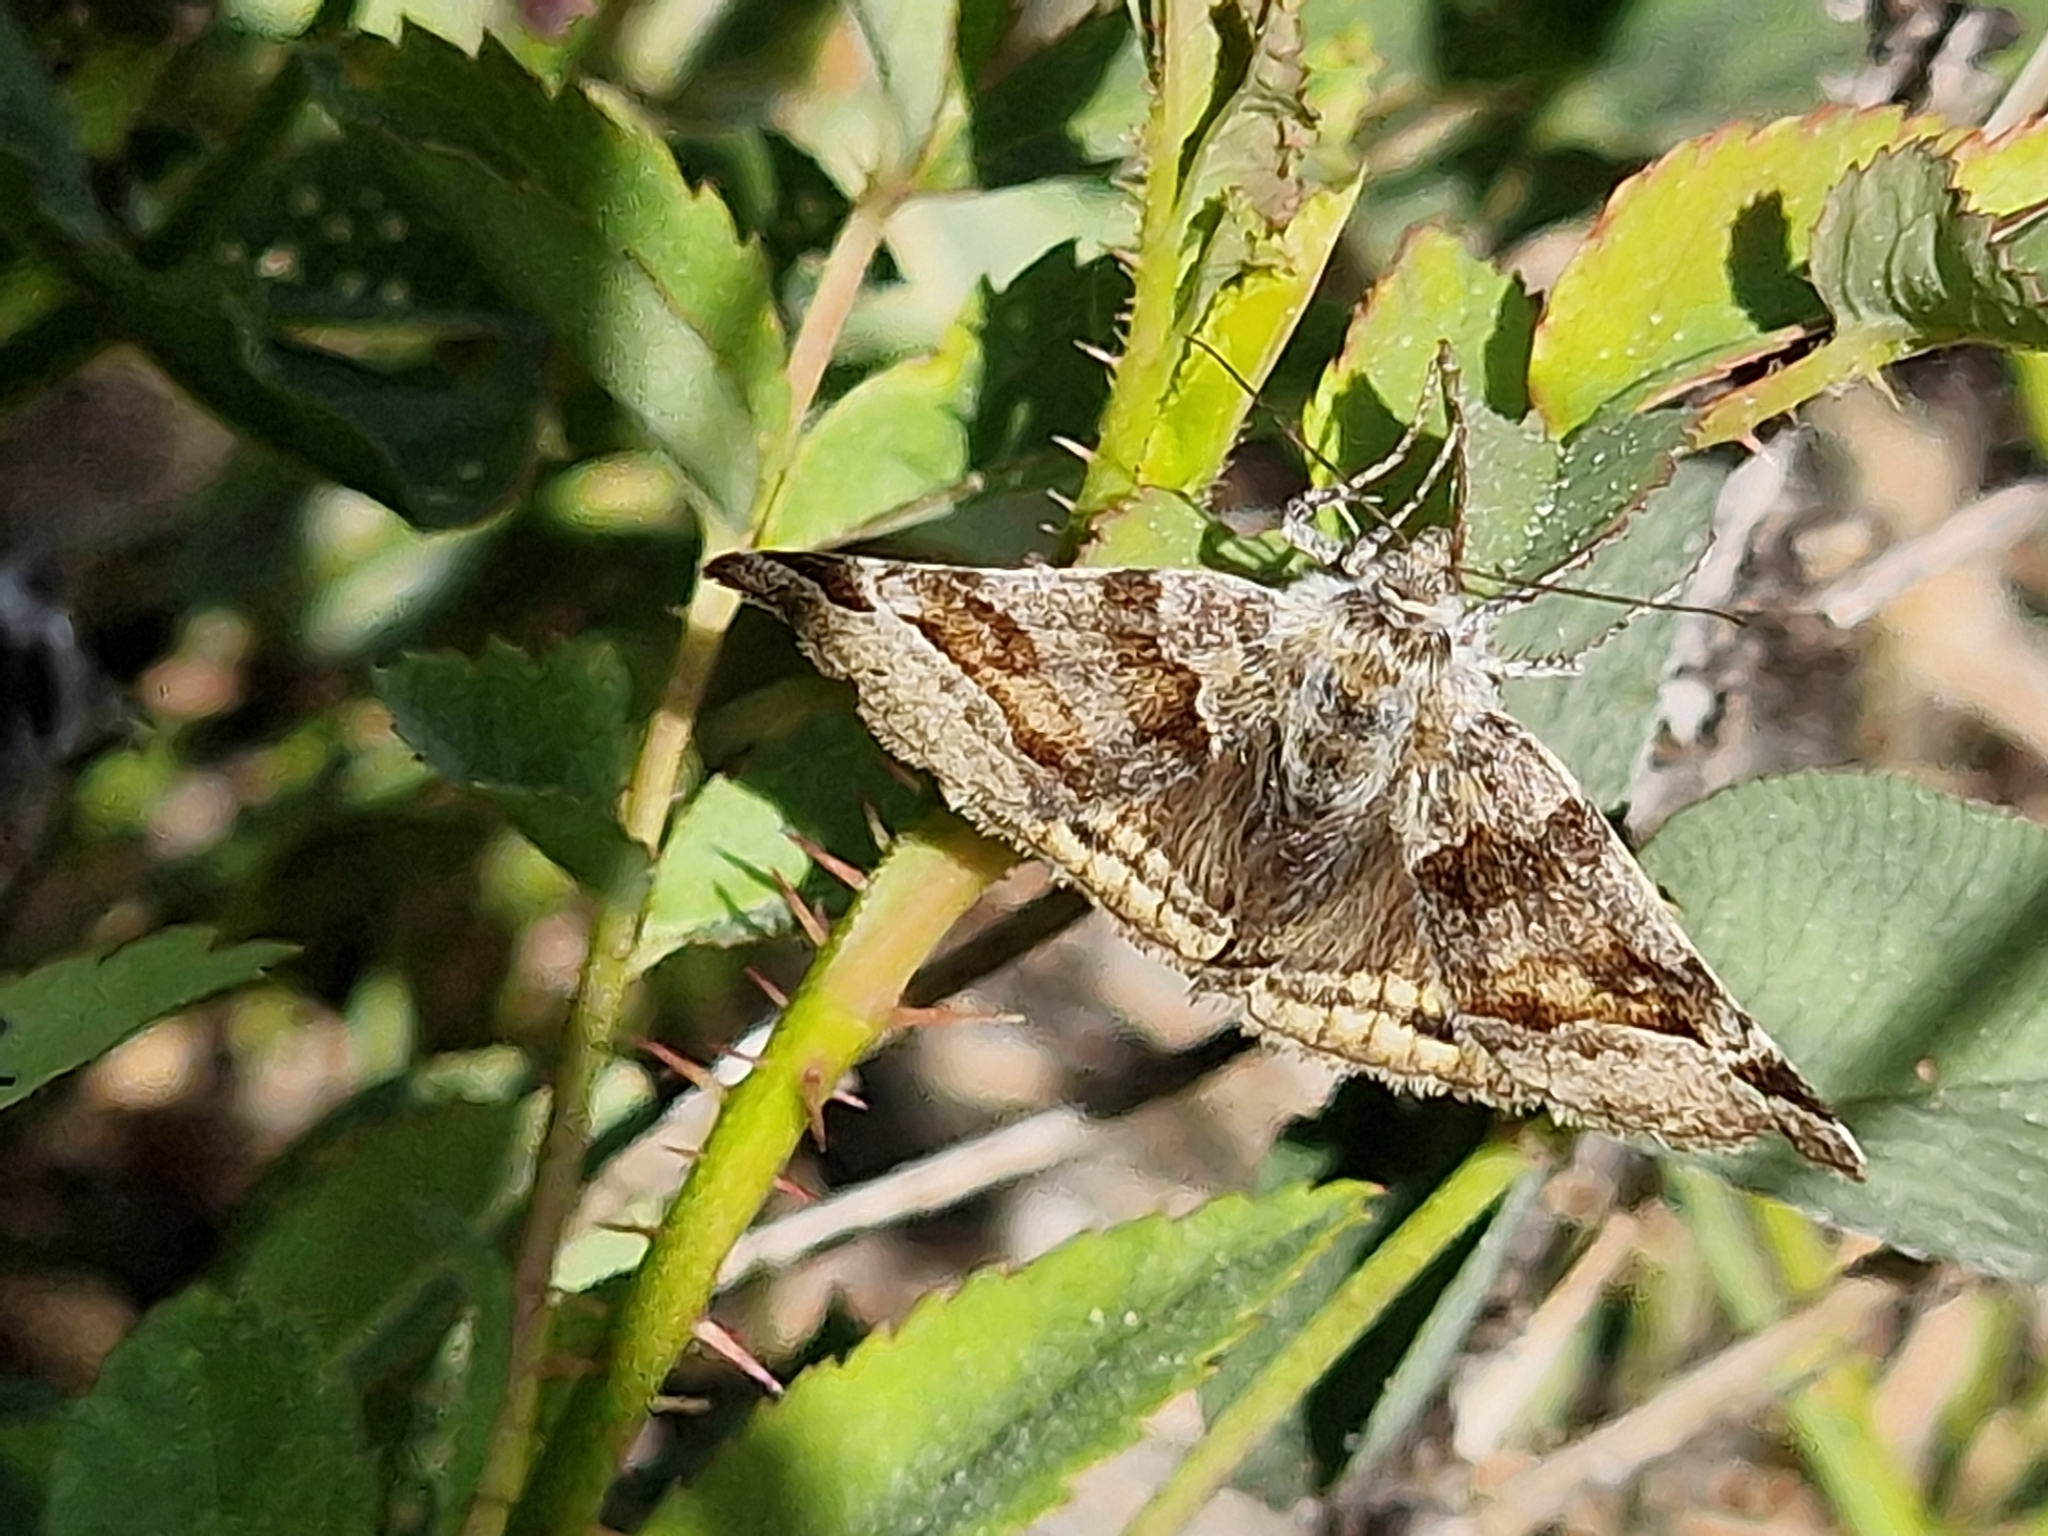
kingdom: Animalia
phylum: Arthropoda
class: Insecta
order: Lepidoptera
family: Erebidae
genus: Euclidia
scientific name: Euclidia glyphica
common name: Burnet companion
